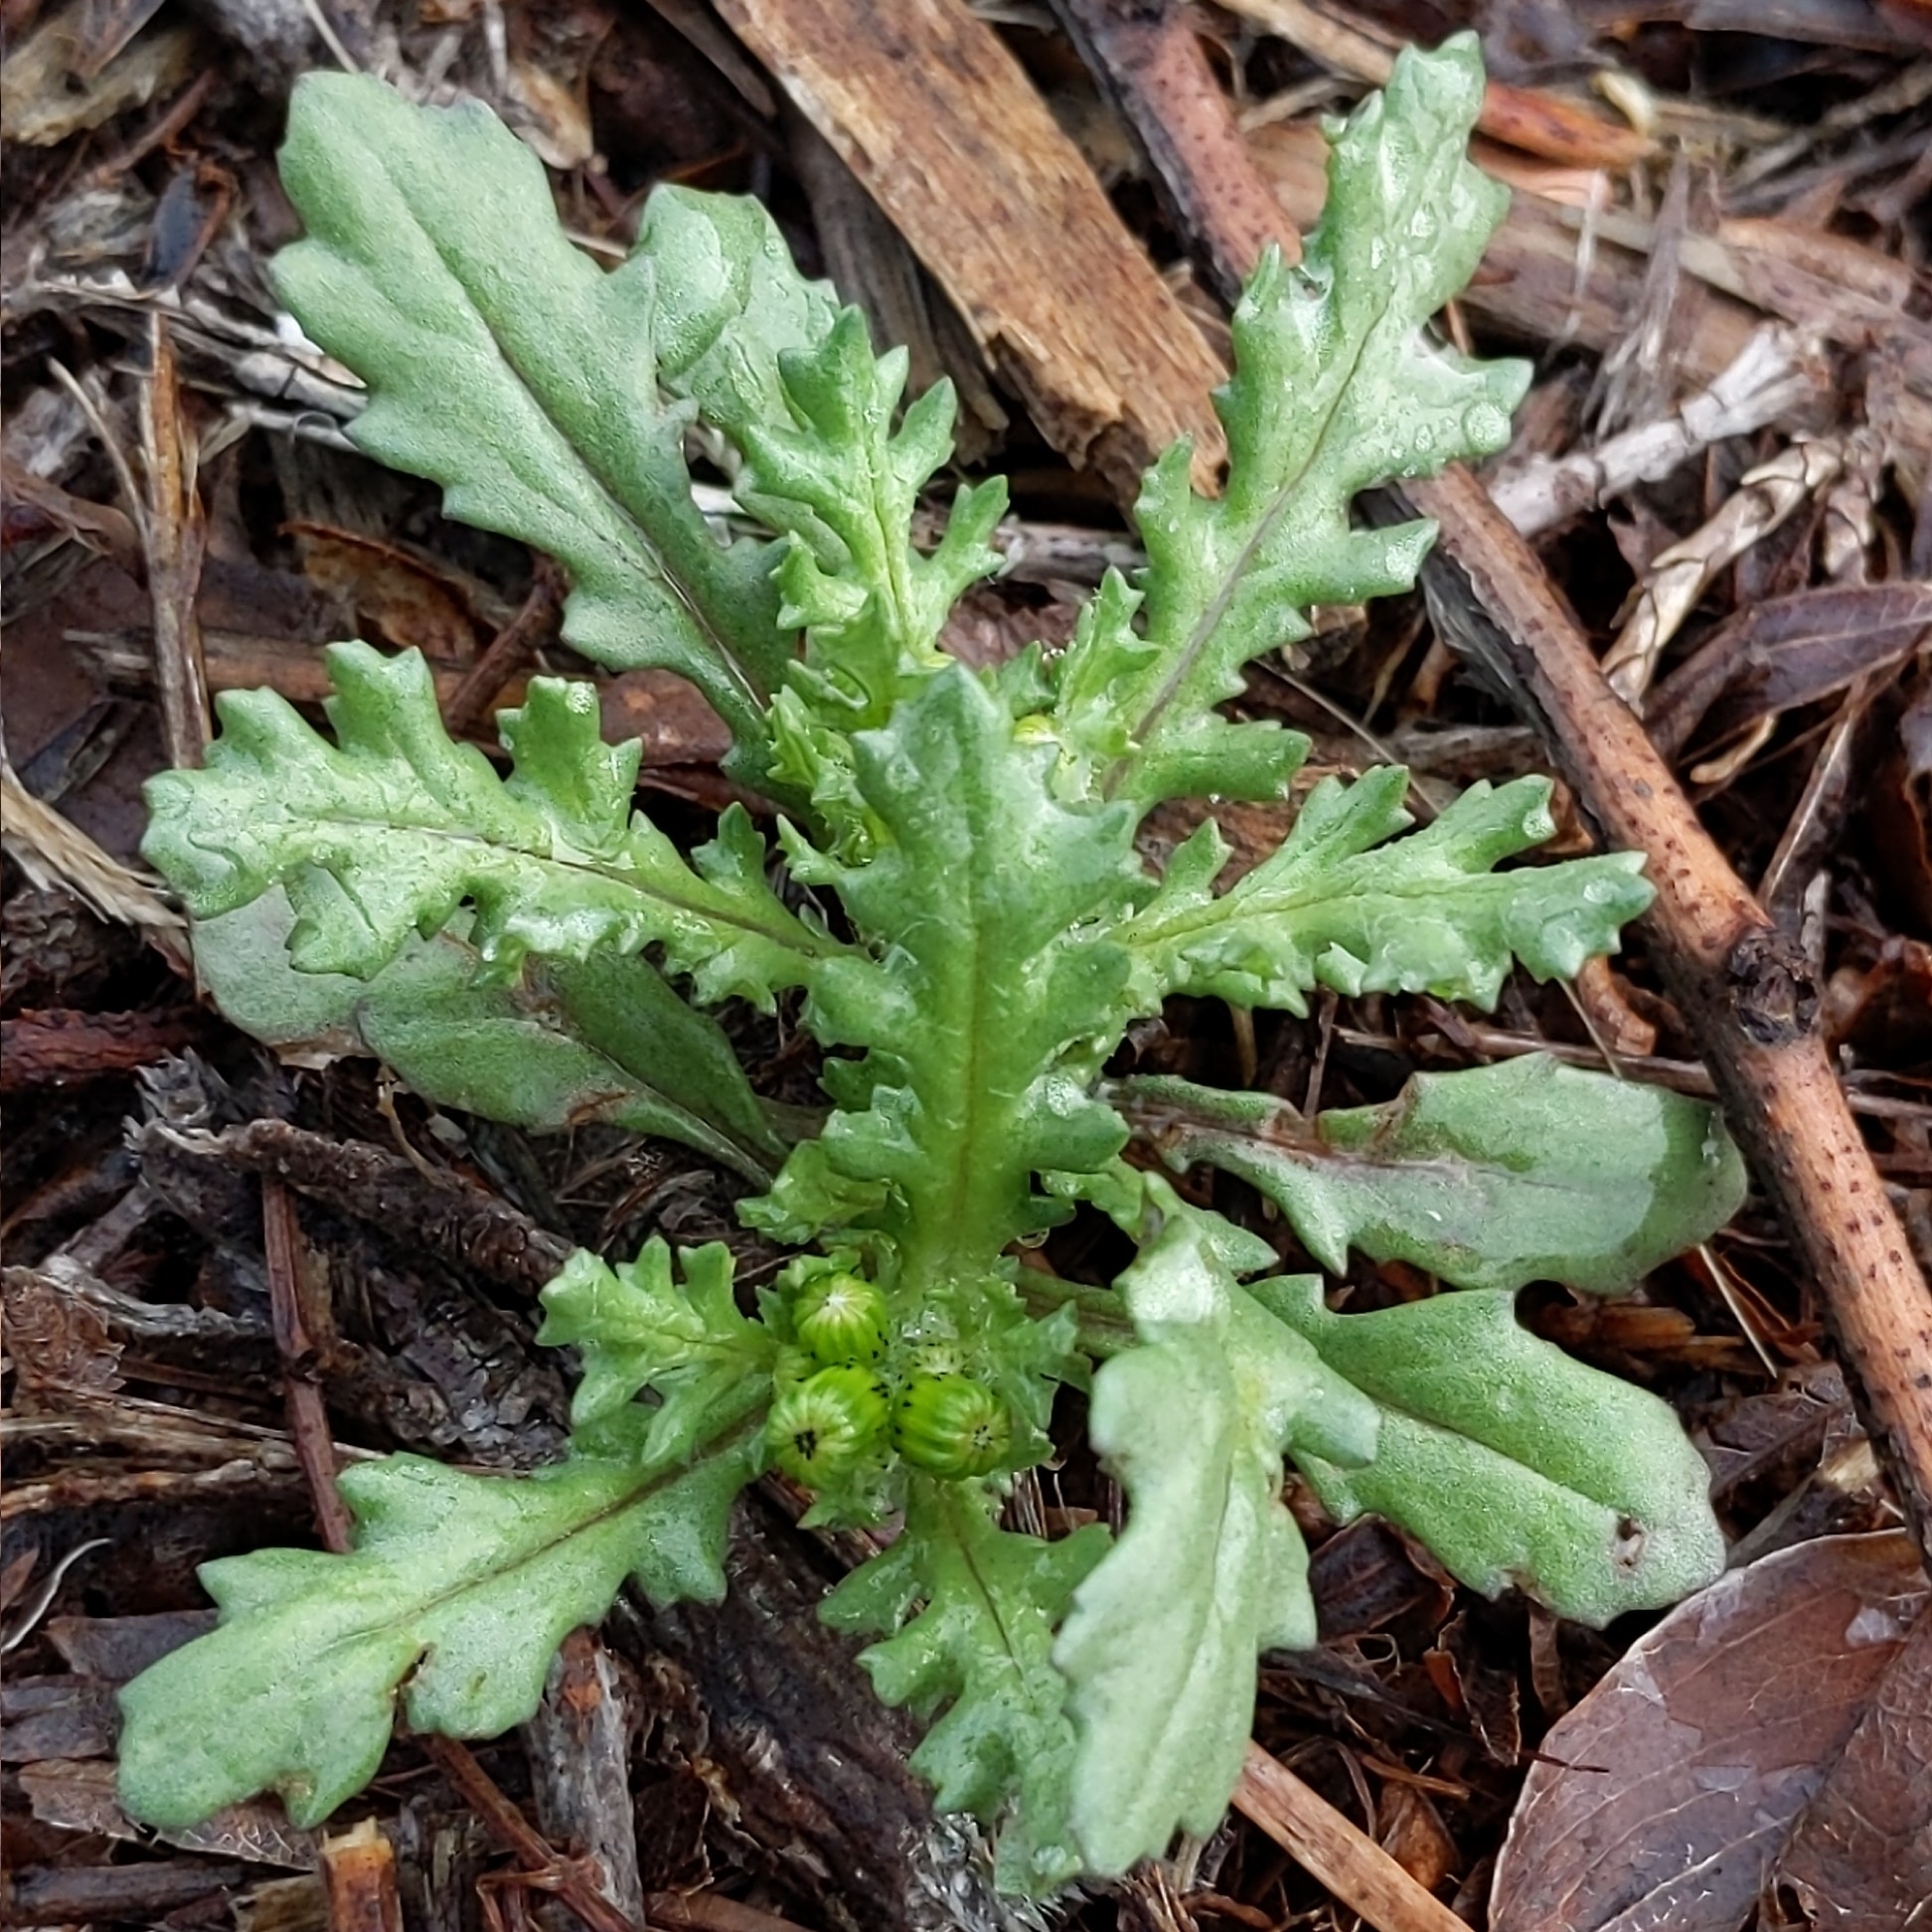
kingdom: Plantae
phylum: Tracheophyta
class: Magnoliopsida
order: Asterales
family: Asteraceae
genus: Senecio
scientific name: Senecio vulgaris
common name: Old-man-in-the-spring
